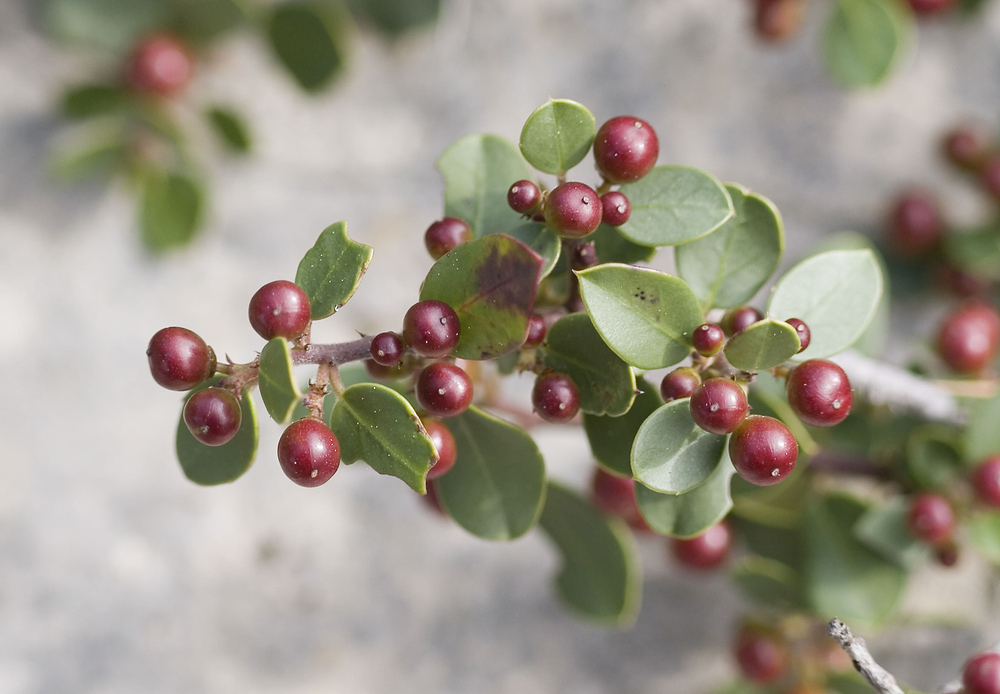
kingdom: Plantae
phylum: Tracheophyta
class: Magnoliopsida
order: Rosales
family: Rhamnaceae
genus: Rhamnus
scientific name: Rhamnus alaternus
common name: Mediterranean buckthorn
